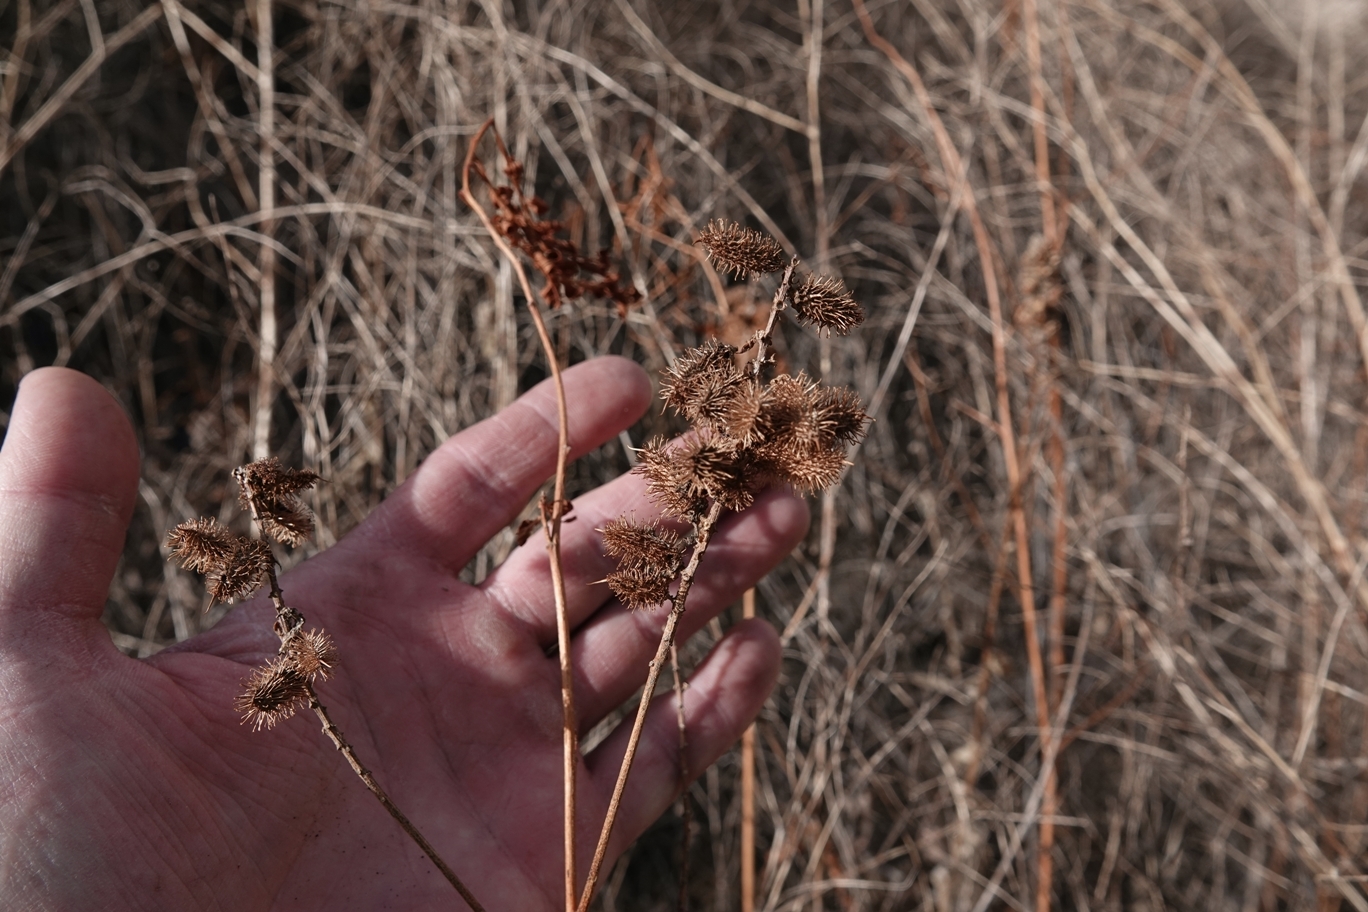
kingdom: Plantae
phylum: Tracheophyta
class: Magnoliopsida
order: Fabales
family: Fabaceae
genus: Glycyrrhiza
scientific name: Glycyrrhiza lepidota
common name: American liquorice
